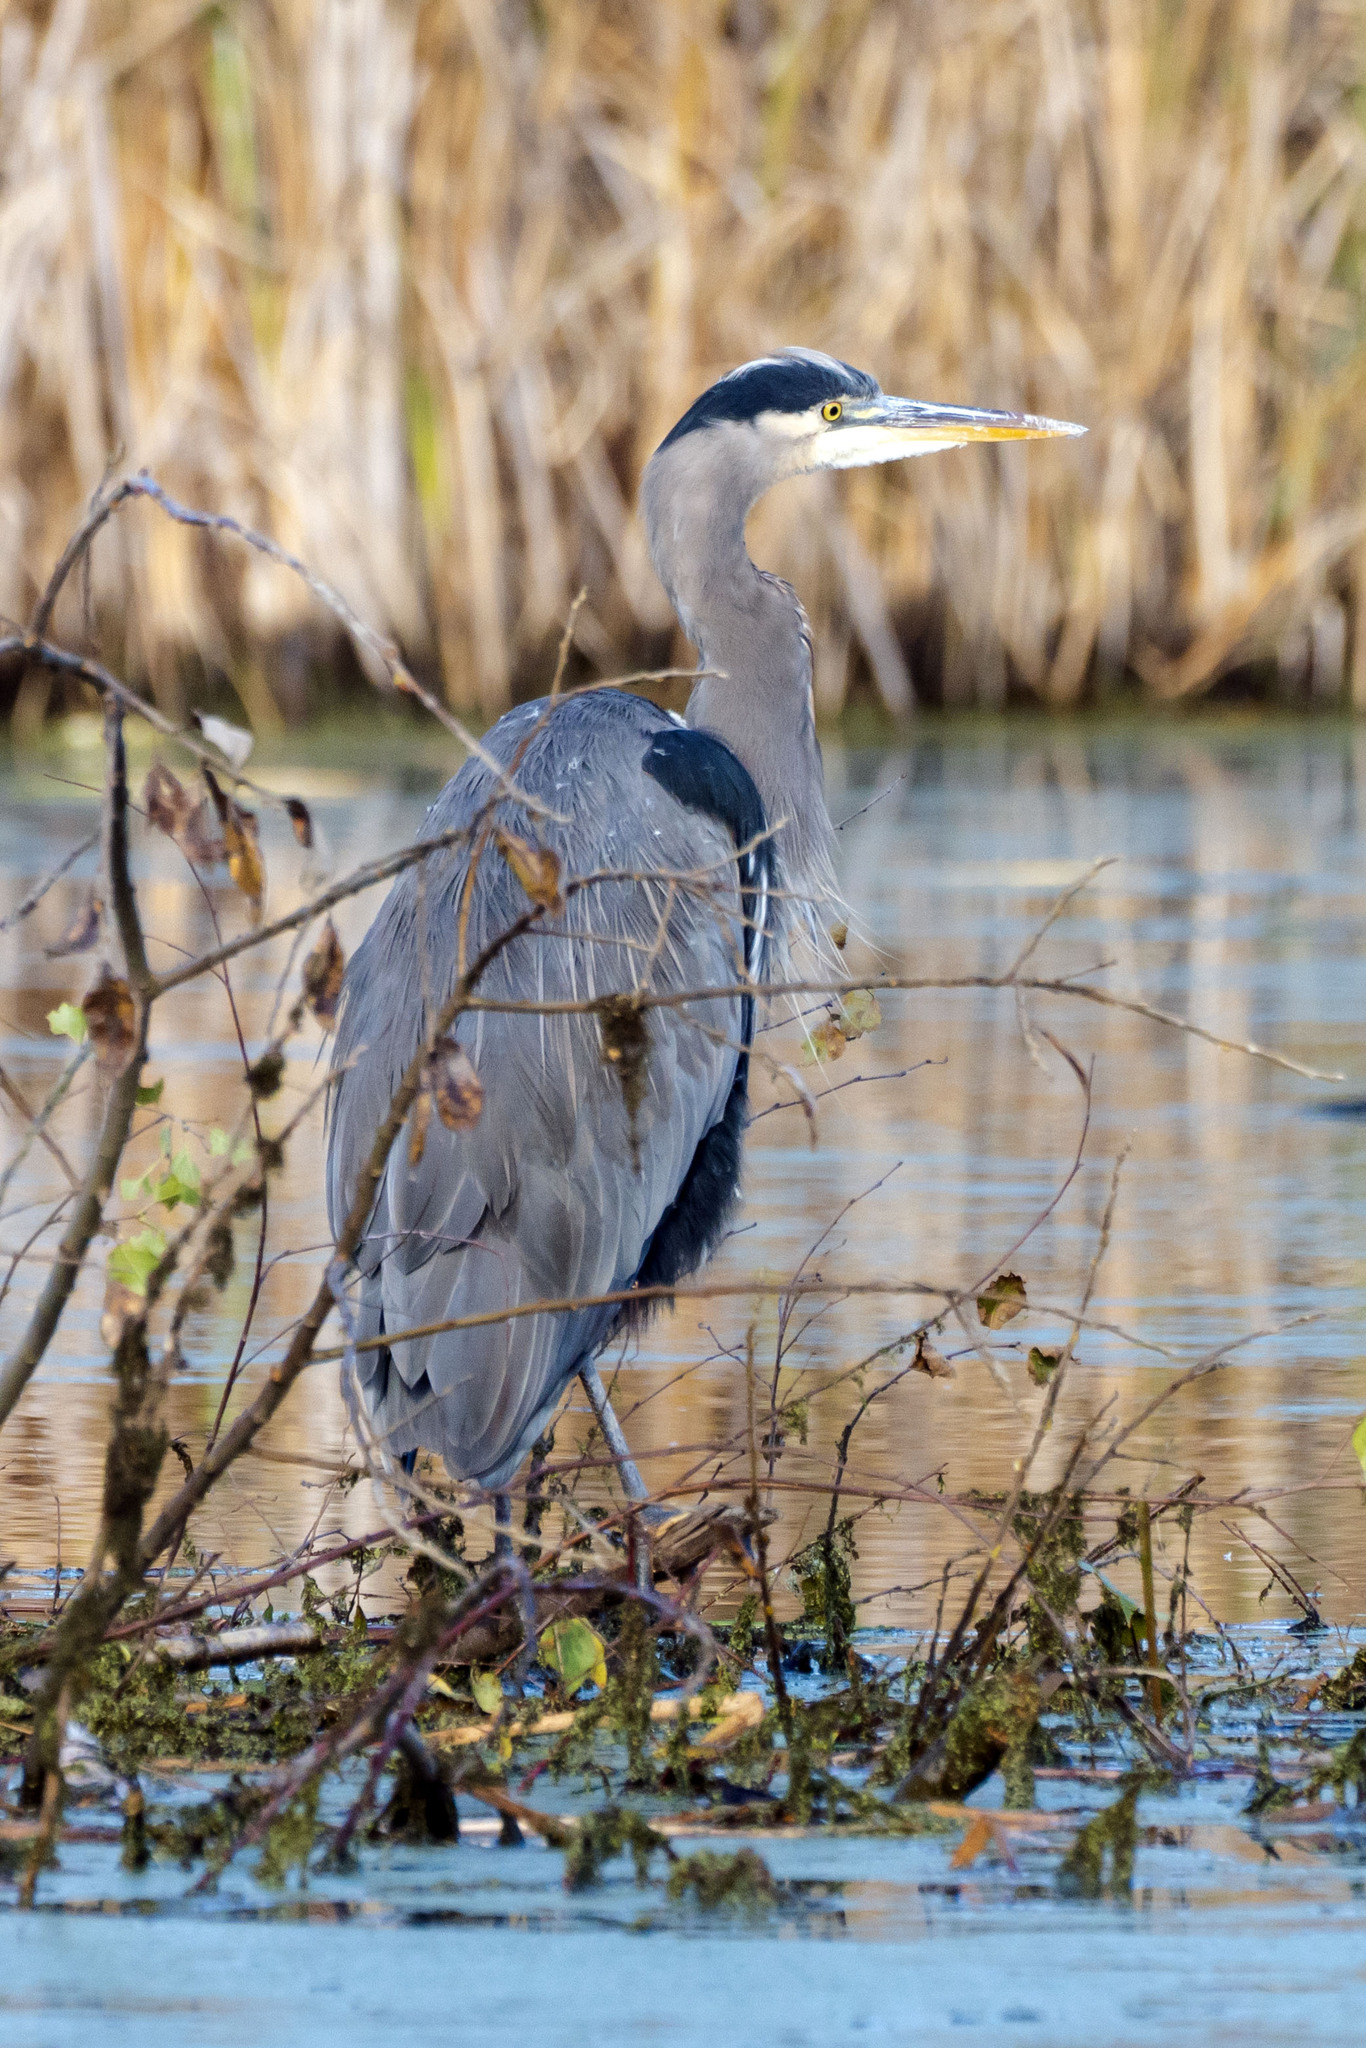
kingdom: Animalia
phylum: Chordata
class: Aves
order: Pelecaniformes
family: Ardeidae
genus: Ardea
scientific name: Ardea herodias
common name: Great blue heron
